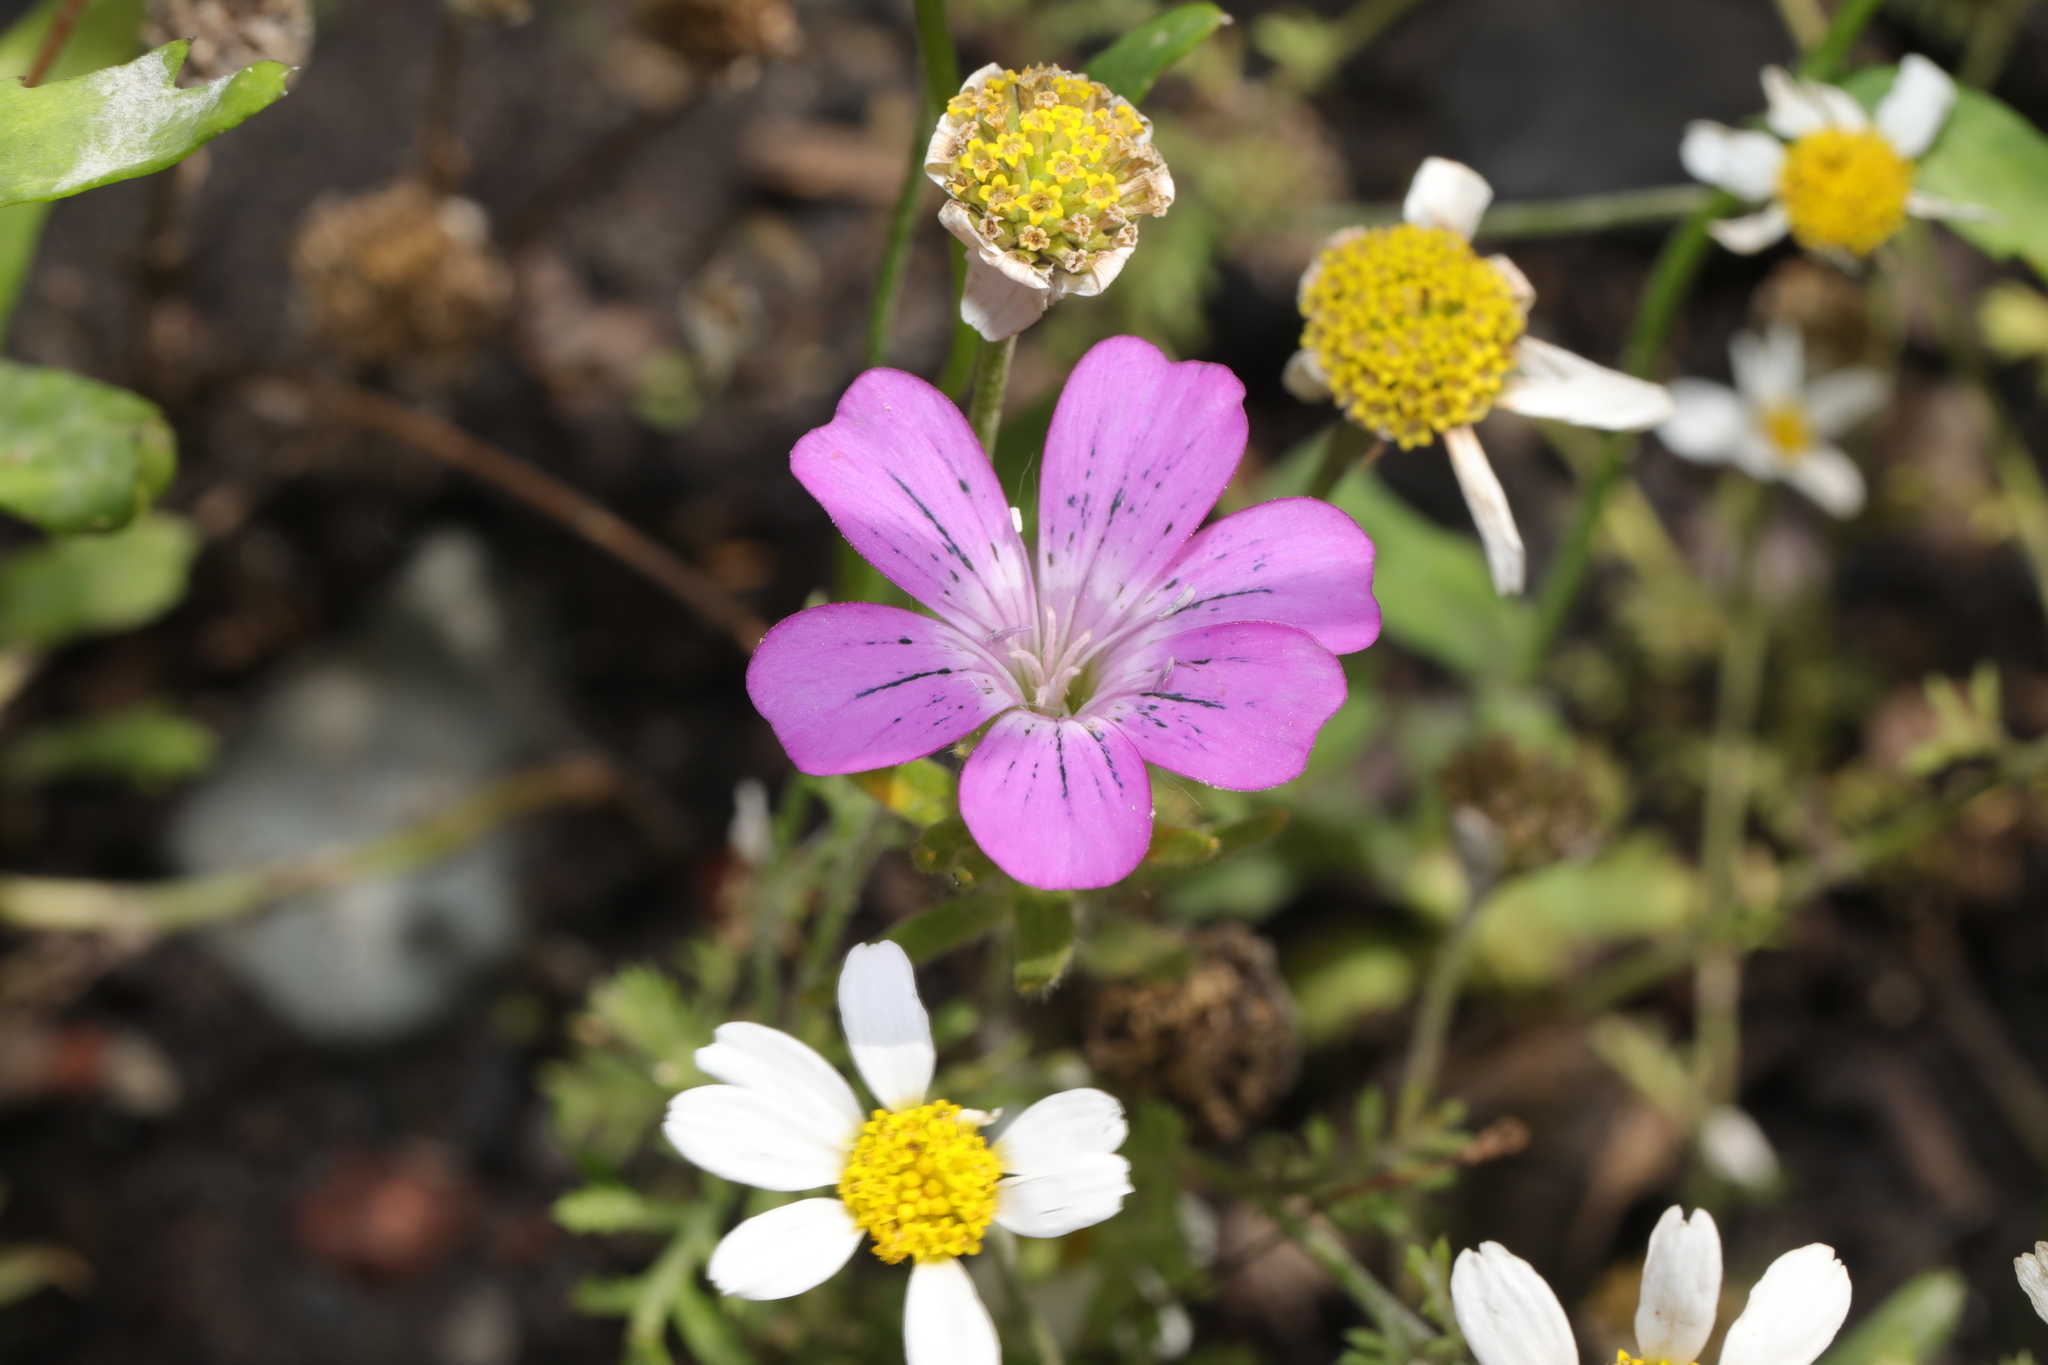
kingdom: Plantae
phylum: Tracheophyta
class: Magnoliopsida
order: Caryophyllales
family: Caryophyllaceae
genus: Agrostemma
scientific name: Agrostemma githago
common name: Common corncockle
